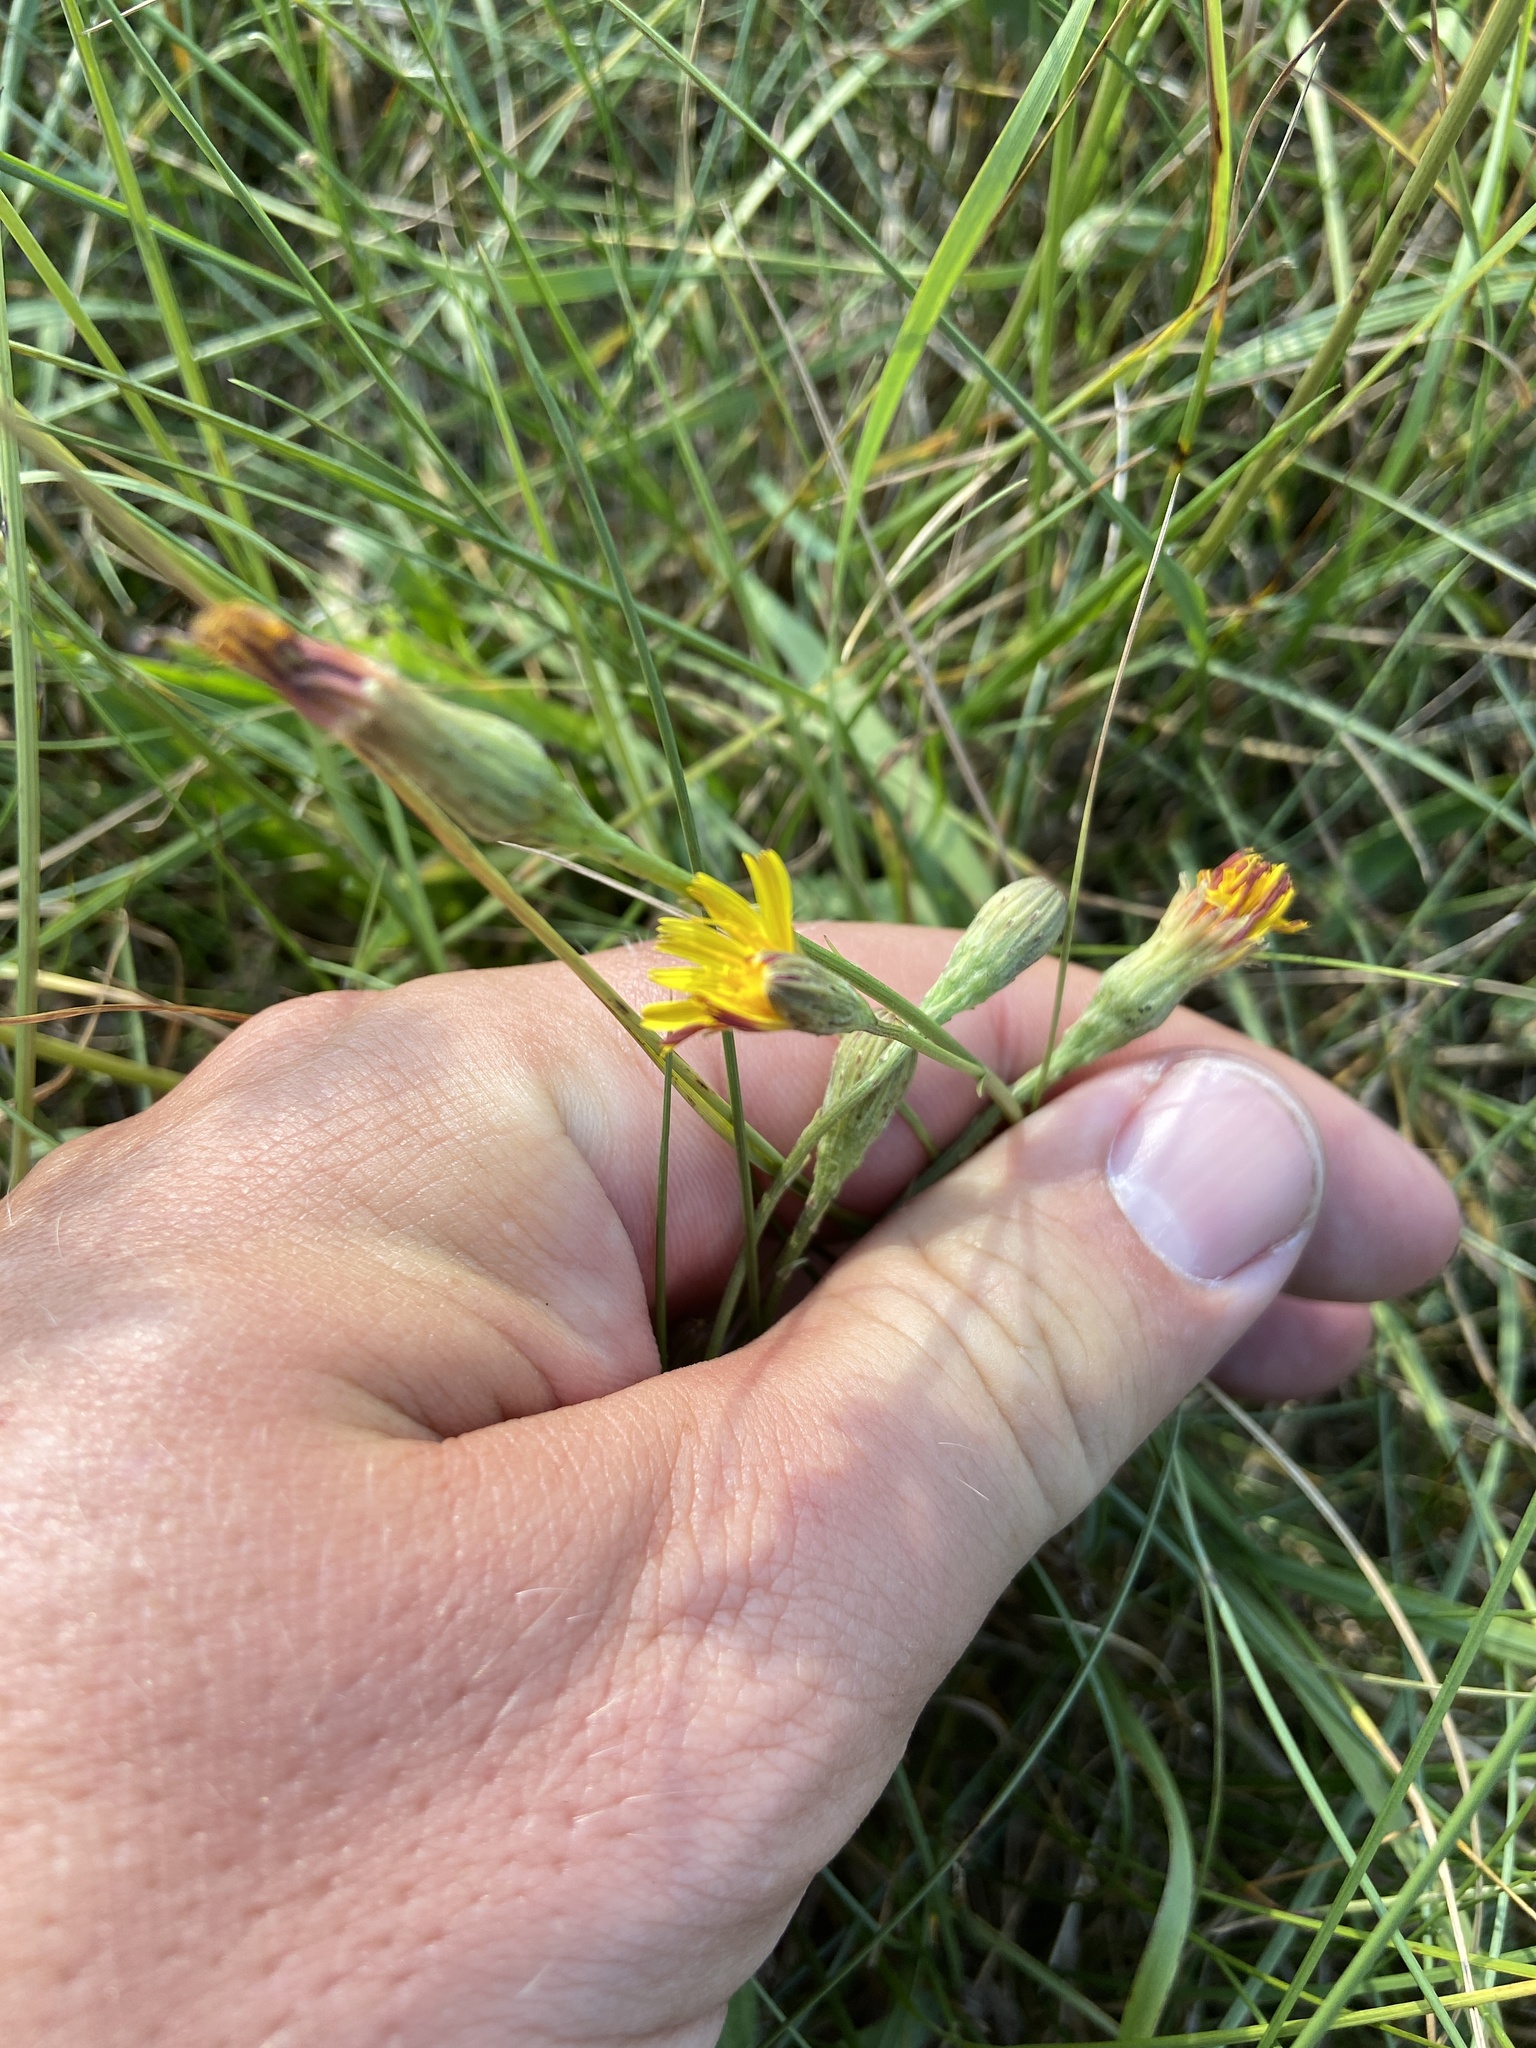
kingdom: Plantae
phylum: Tracheophyta
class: Magnoliopsida
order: Asterales
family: Asteraceae
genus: Scorzoneroides
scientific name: Scorzoneroides autumnalis
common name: Autumn hawkbit
